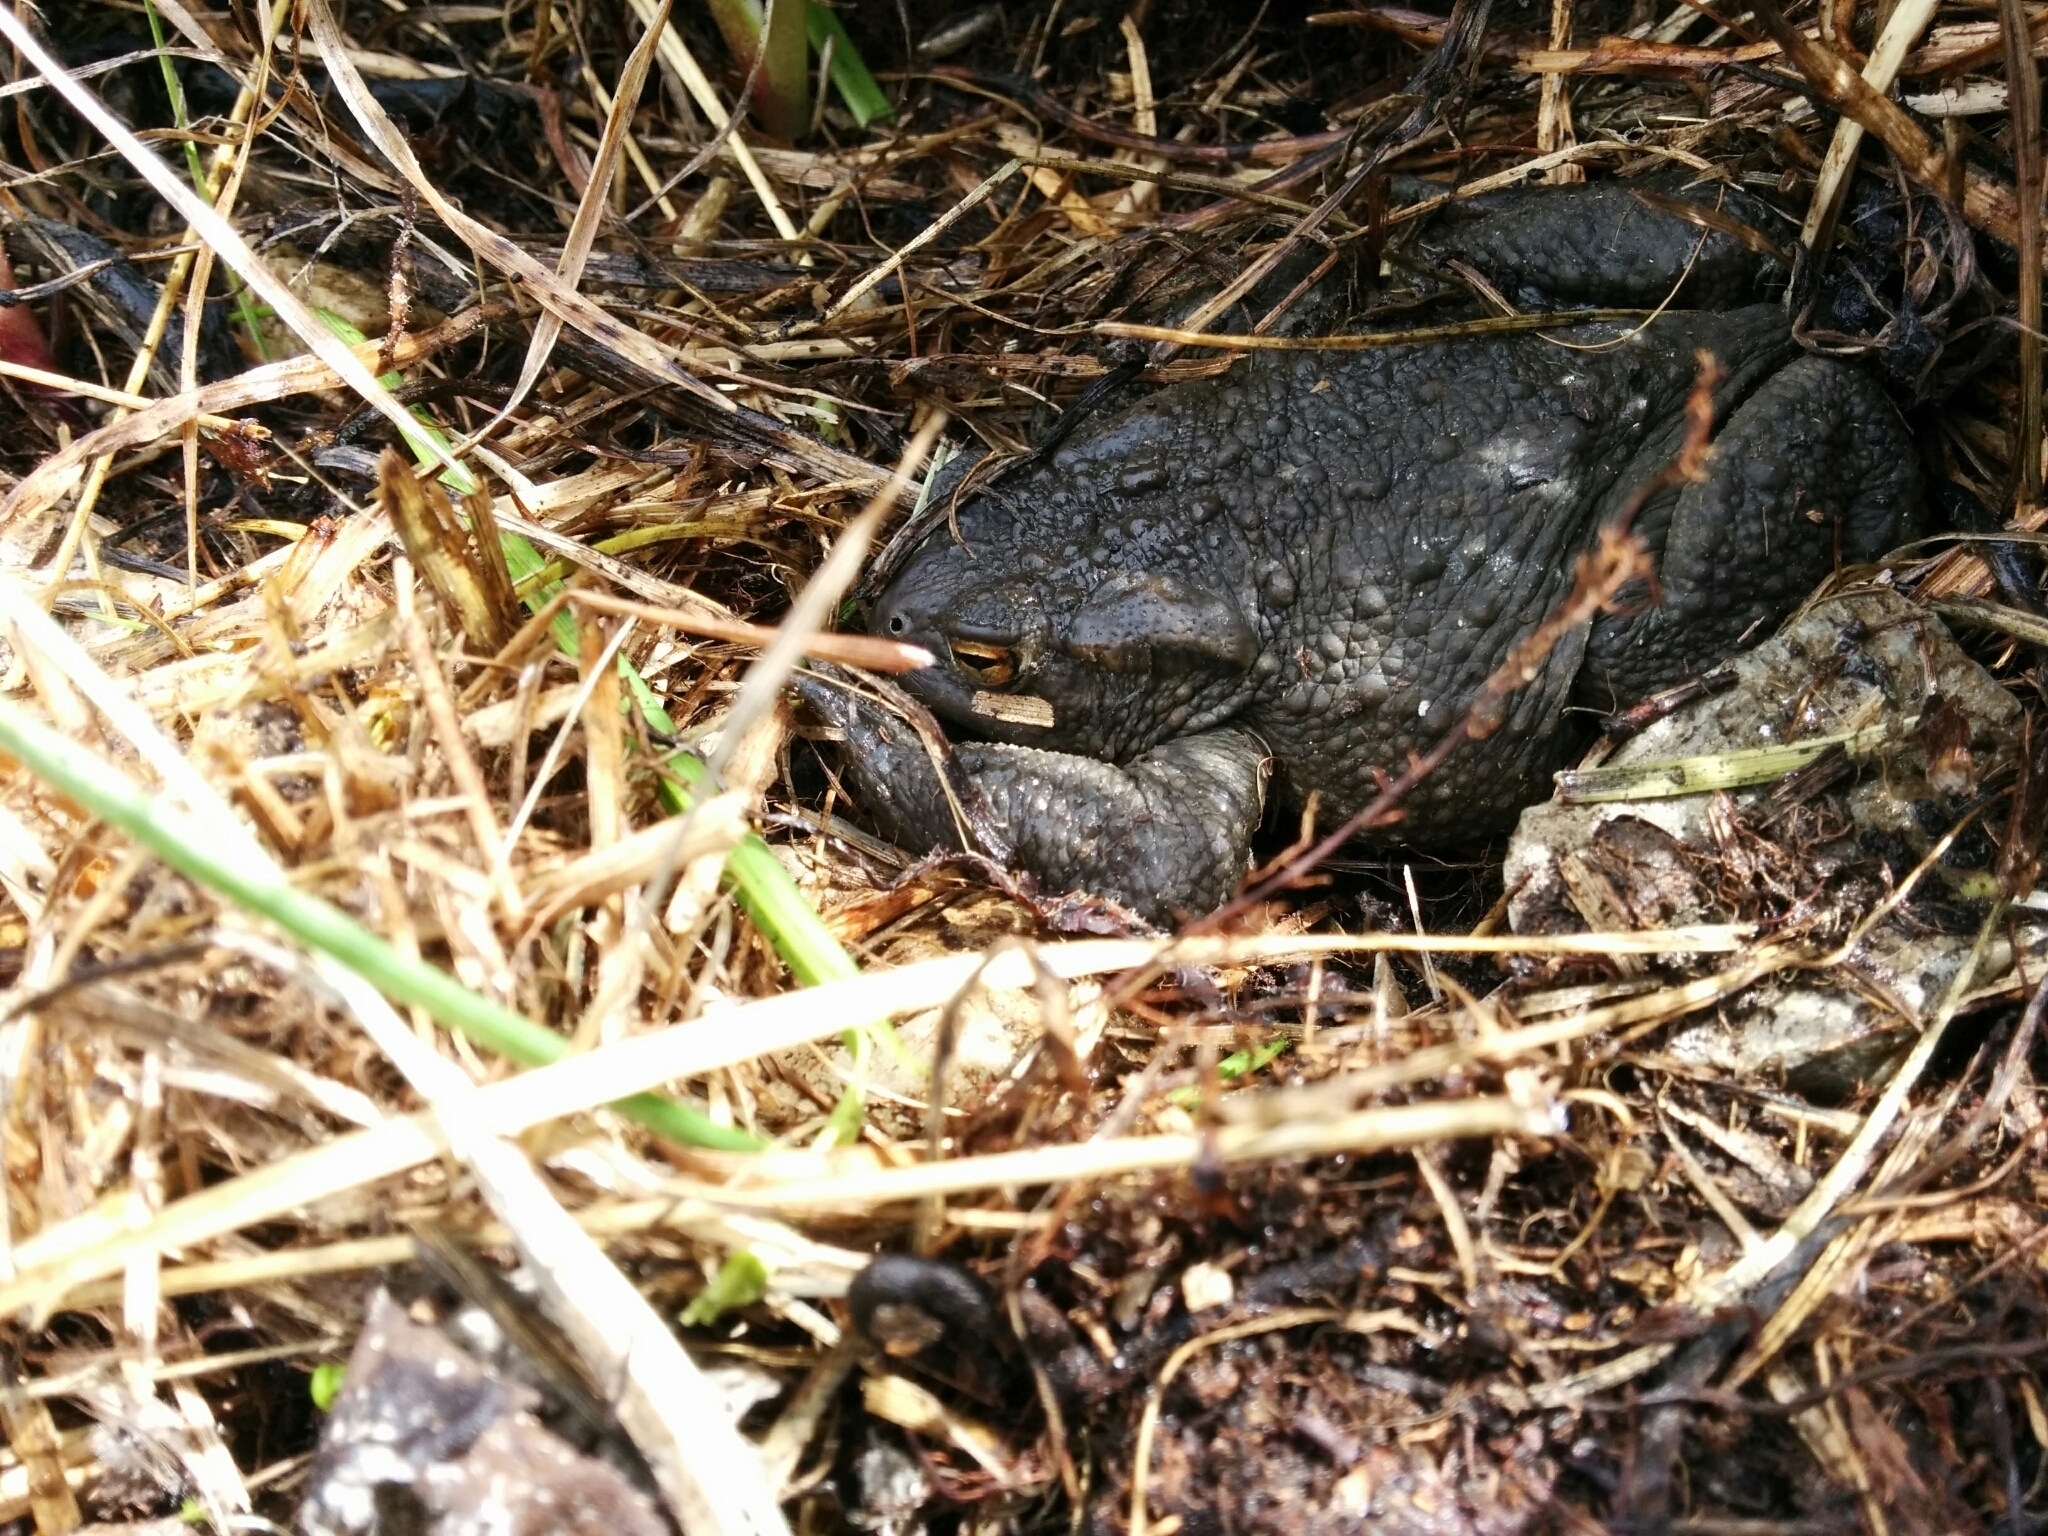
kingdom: Animalia
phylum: Chordata
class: Amphibia
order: Anura
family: Bufonidae
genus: Bufo
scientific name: Bufo bufo
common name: Common toad
